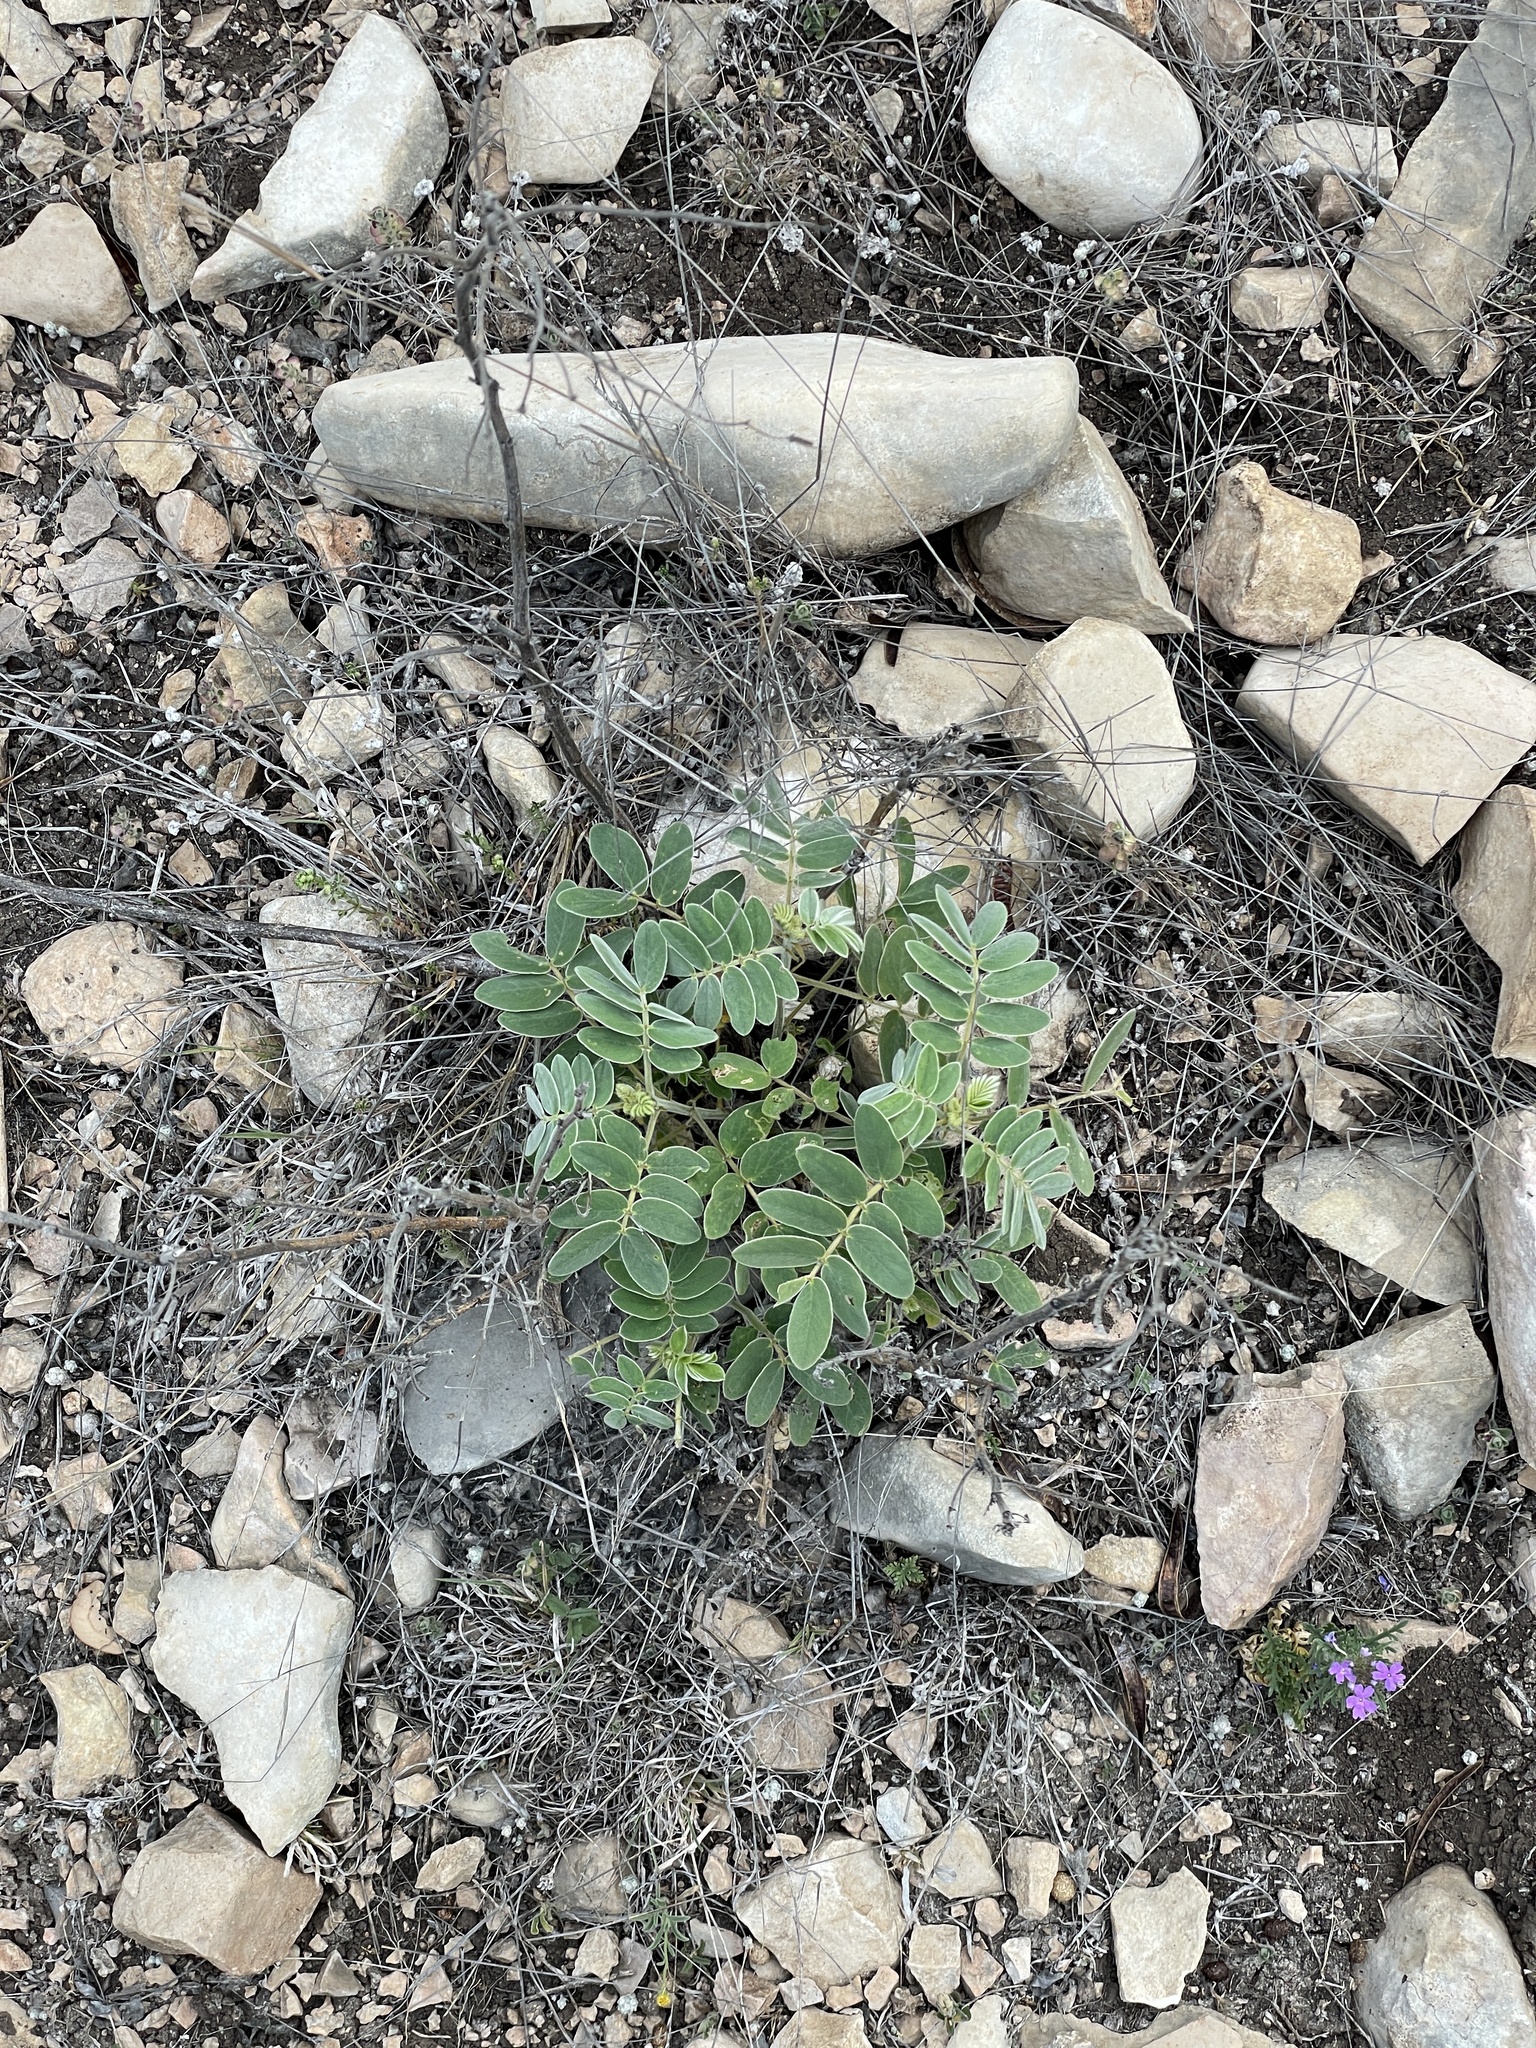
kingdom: Plantae
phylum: Tracheophyta
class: Magnoliopsida
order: Fabales
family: Fabaceae
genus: Senna
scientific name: Senna lindheimeriana
